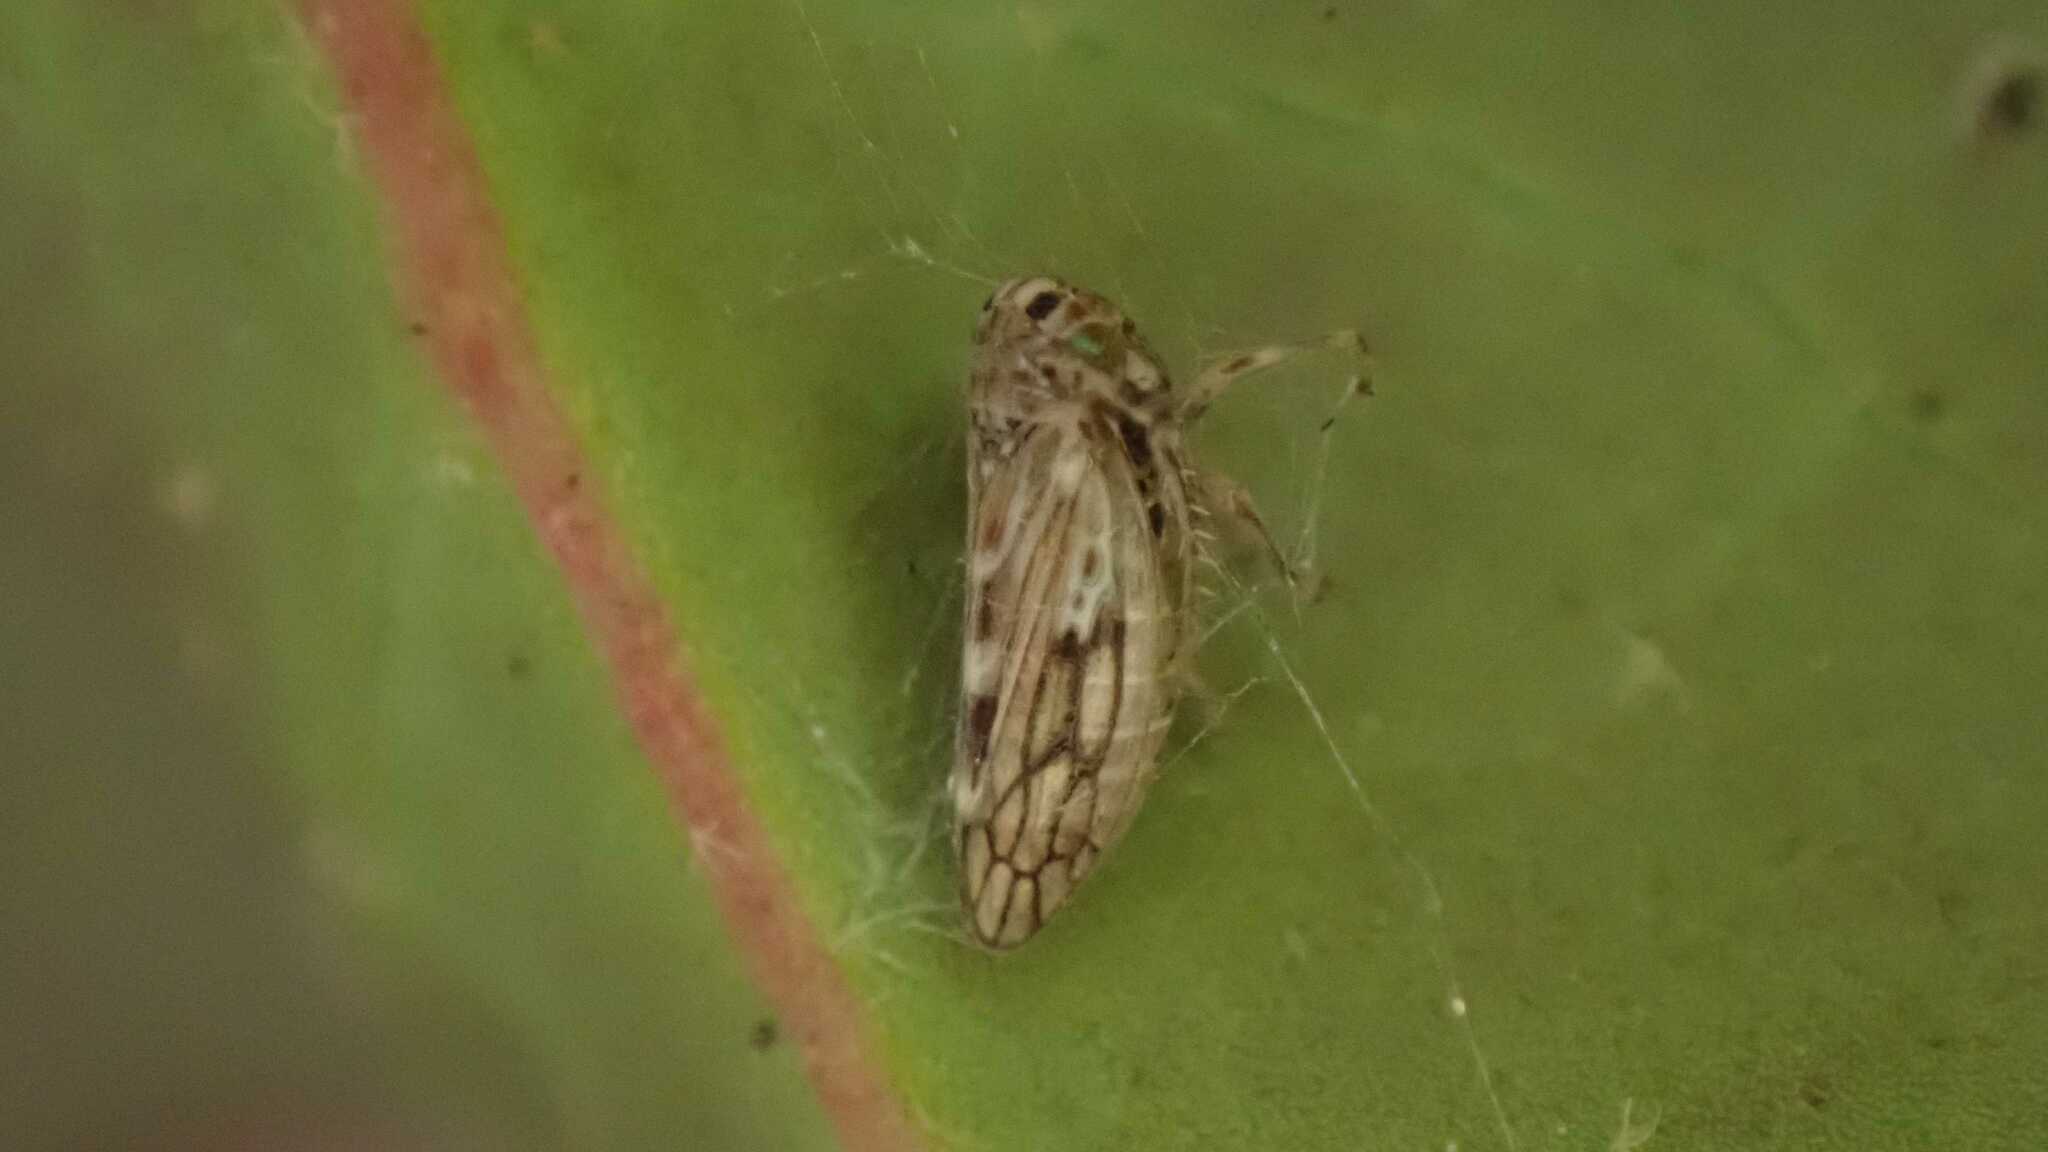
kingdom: Animalia
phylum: Arthropoda
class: Insecta
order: Hemiptera
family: Cicadellidae
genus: Agallia
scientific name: Agallia consobrina
